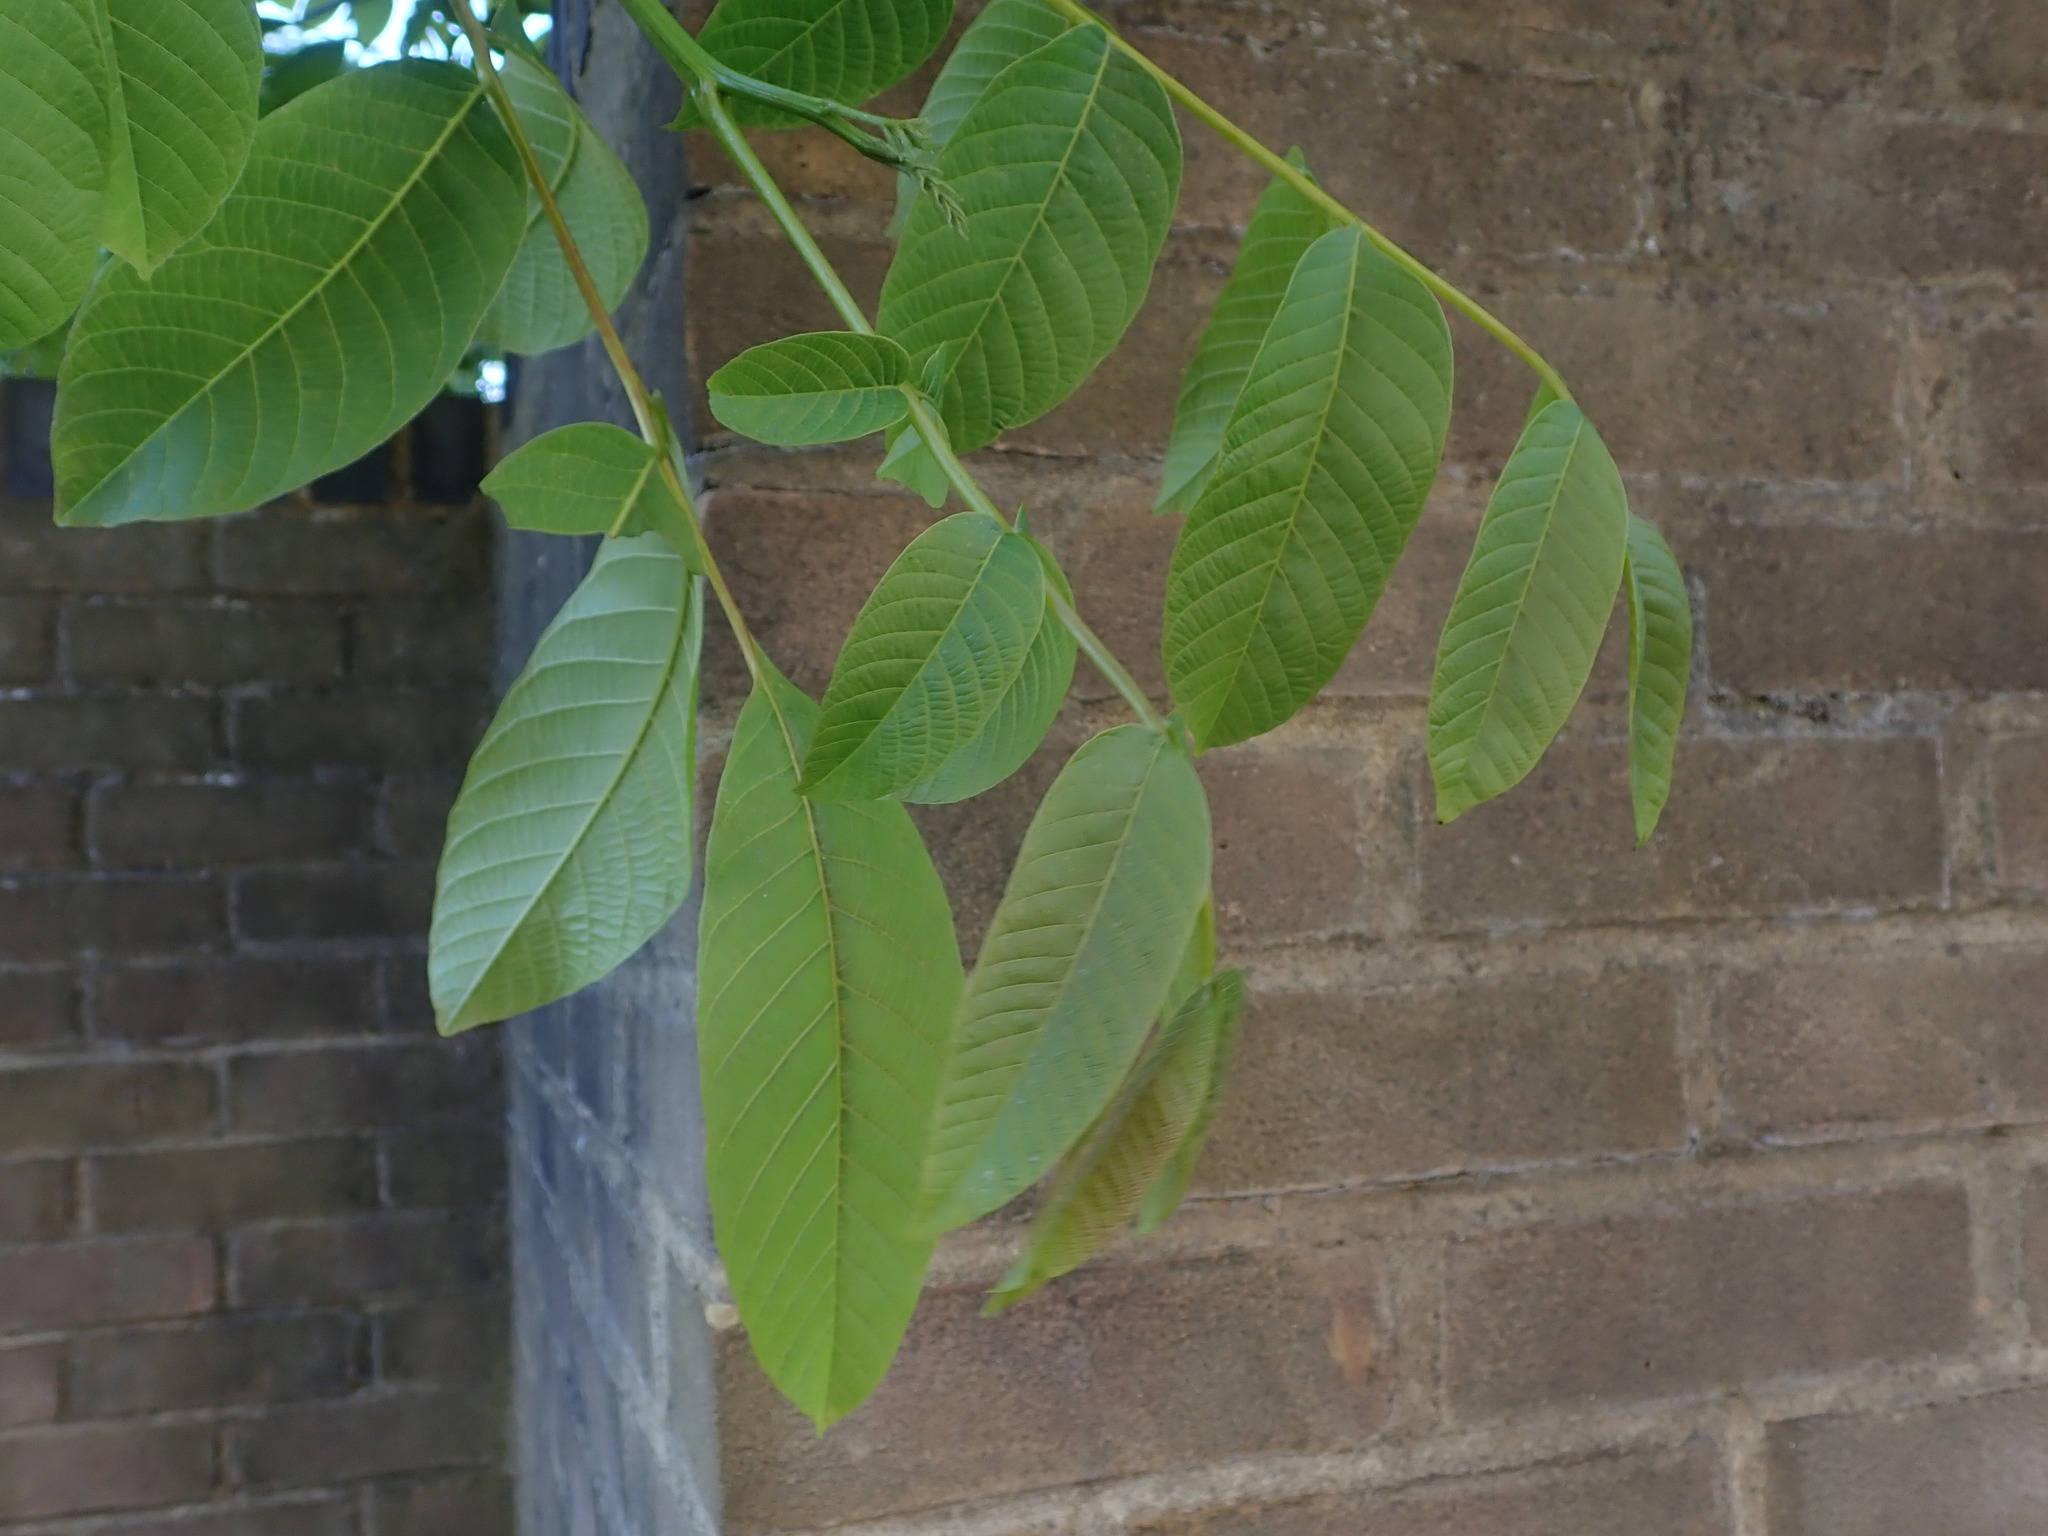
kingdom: Plantae
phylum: Tracheophyta
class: Magnoliopsida
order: Fagales
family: Juglandaceae
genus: Juglans
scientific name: Juglans regia
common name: Walnut
